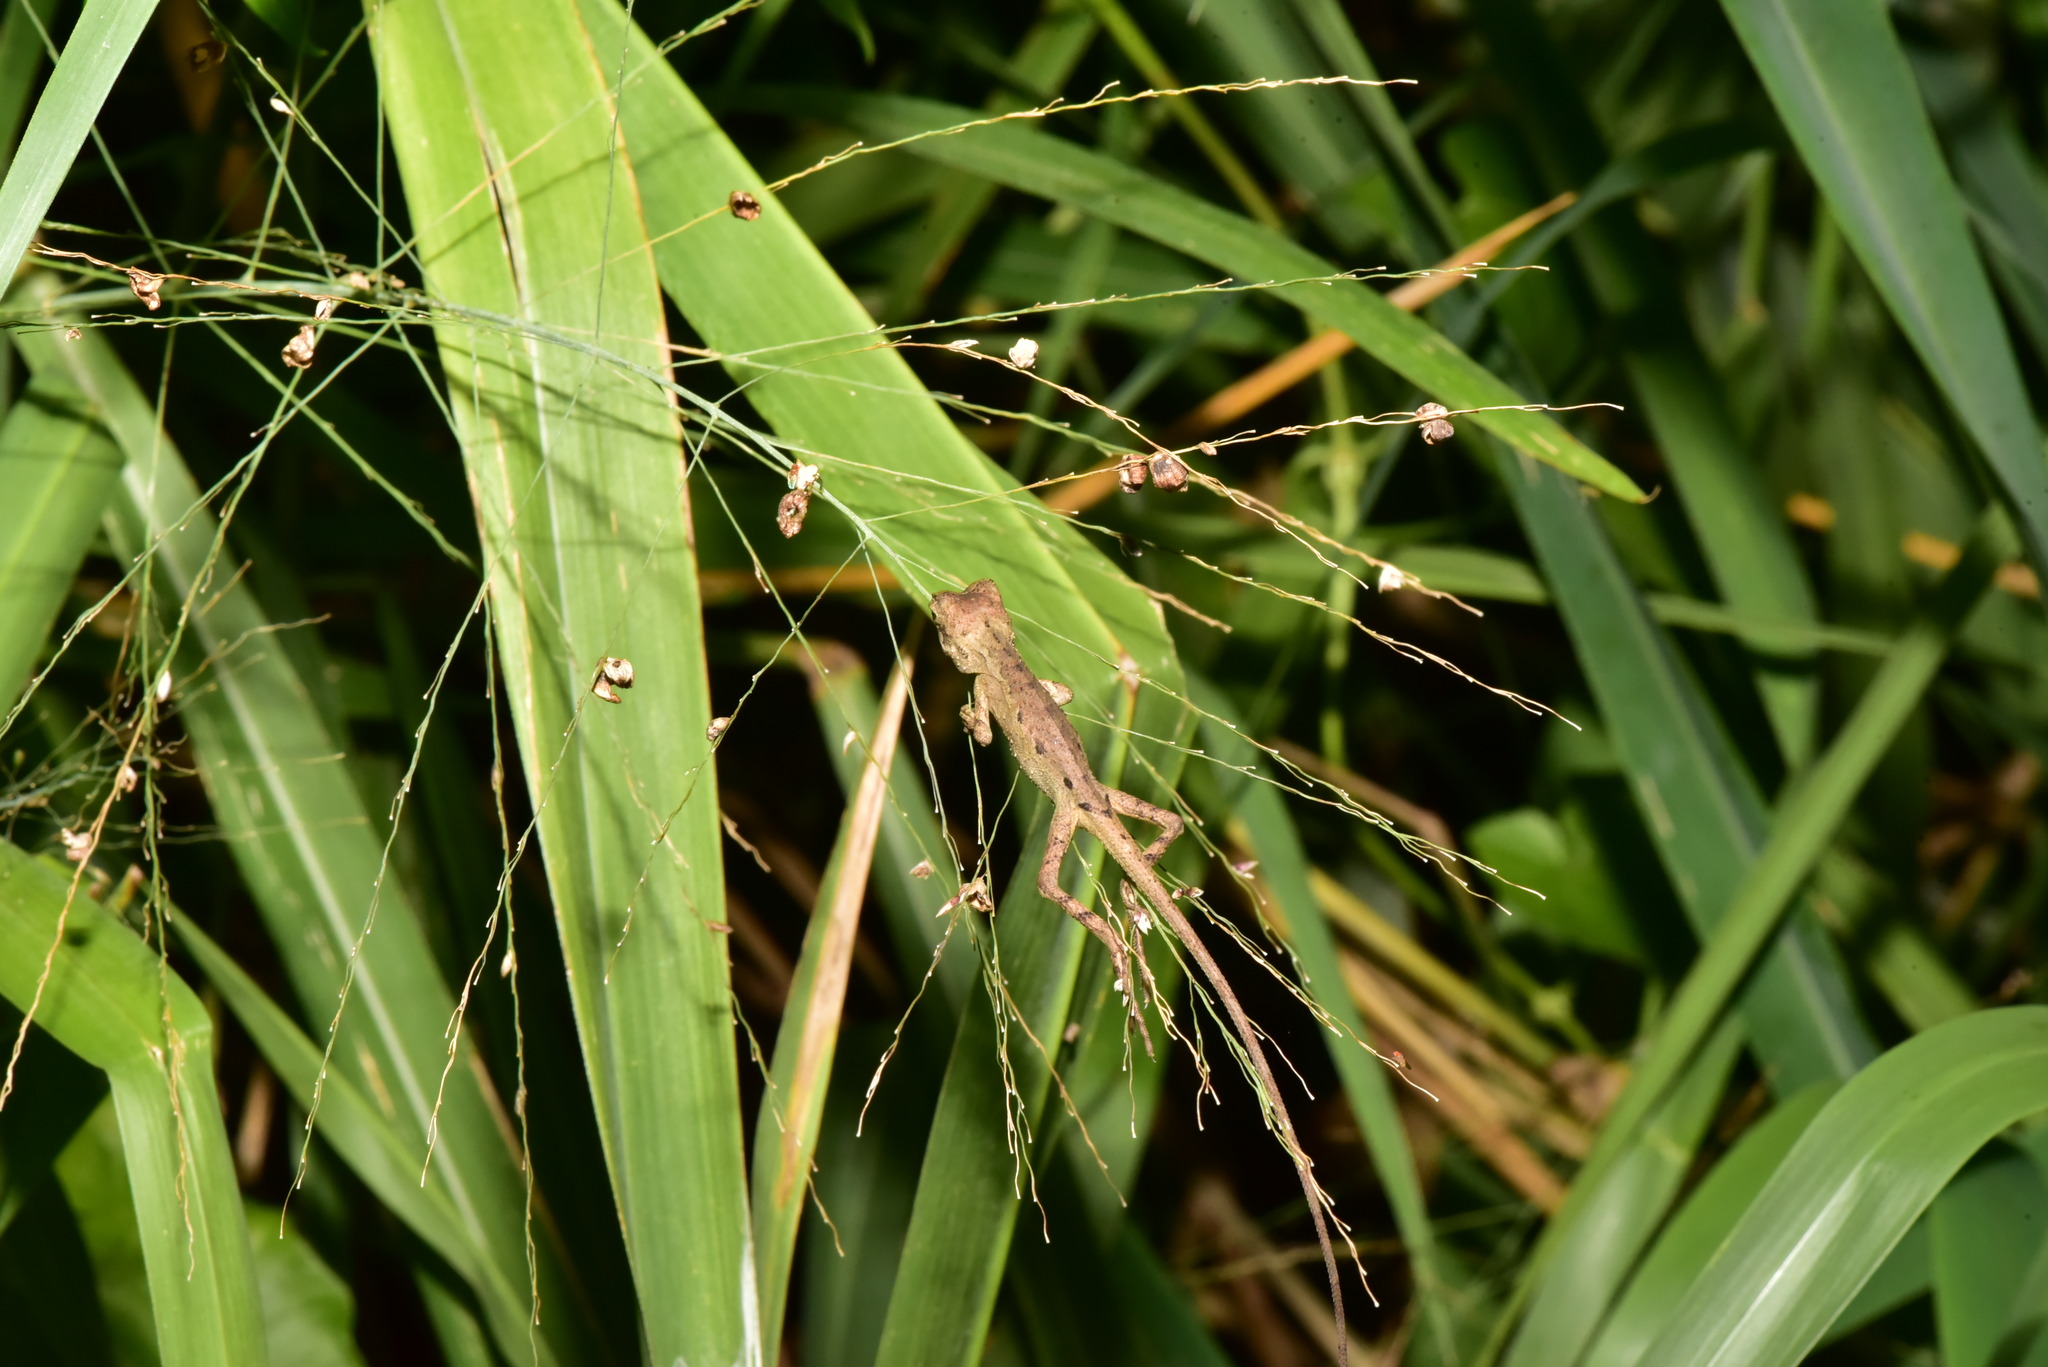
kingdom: Animalia
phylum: Chordata
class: Squamata
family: Agamidae
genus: Diploderma
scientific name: Diploderma swinhonis
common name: Taiwan japalure
